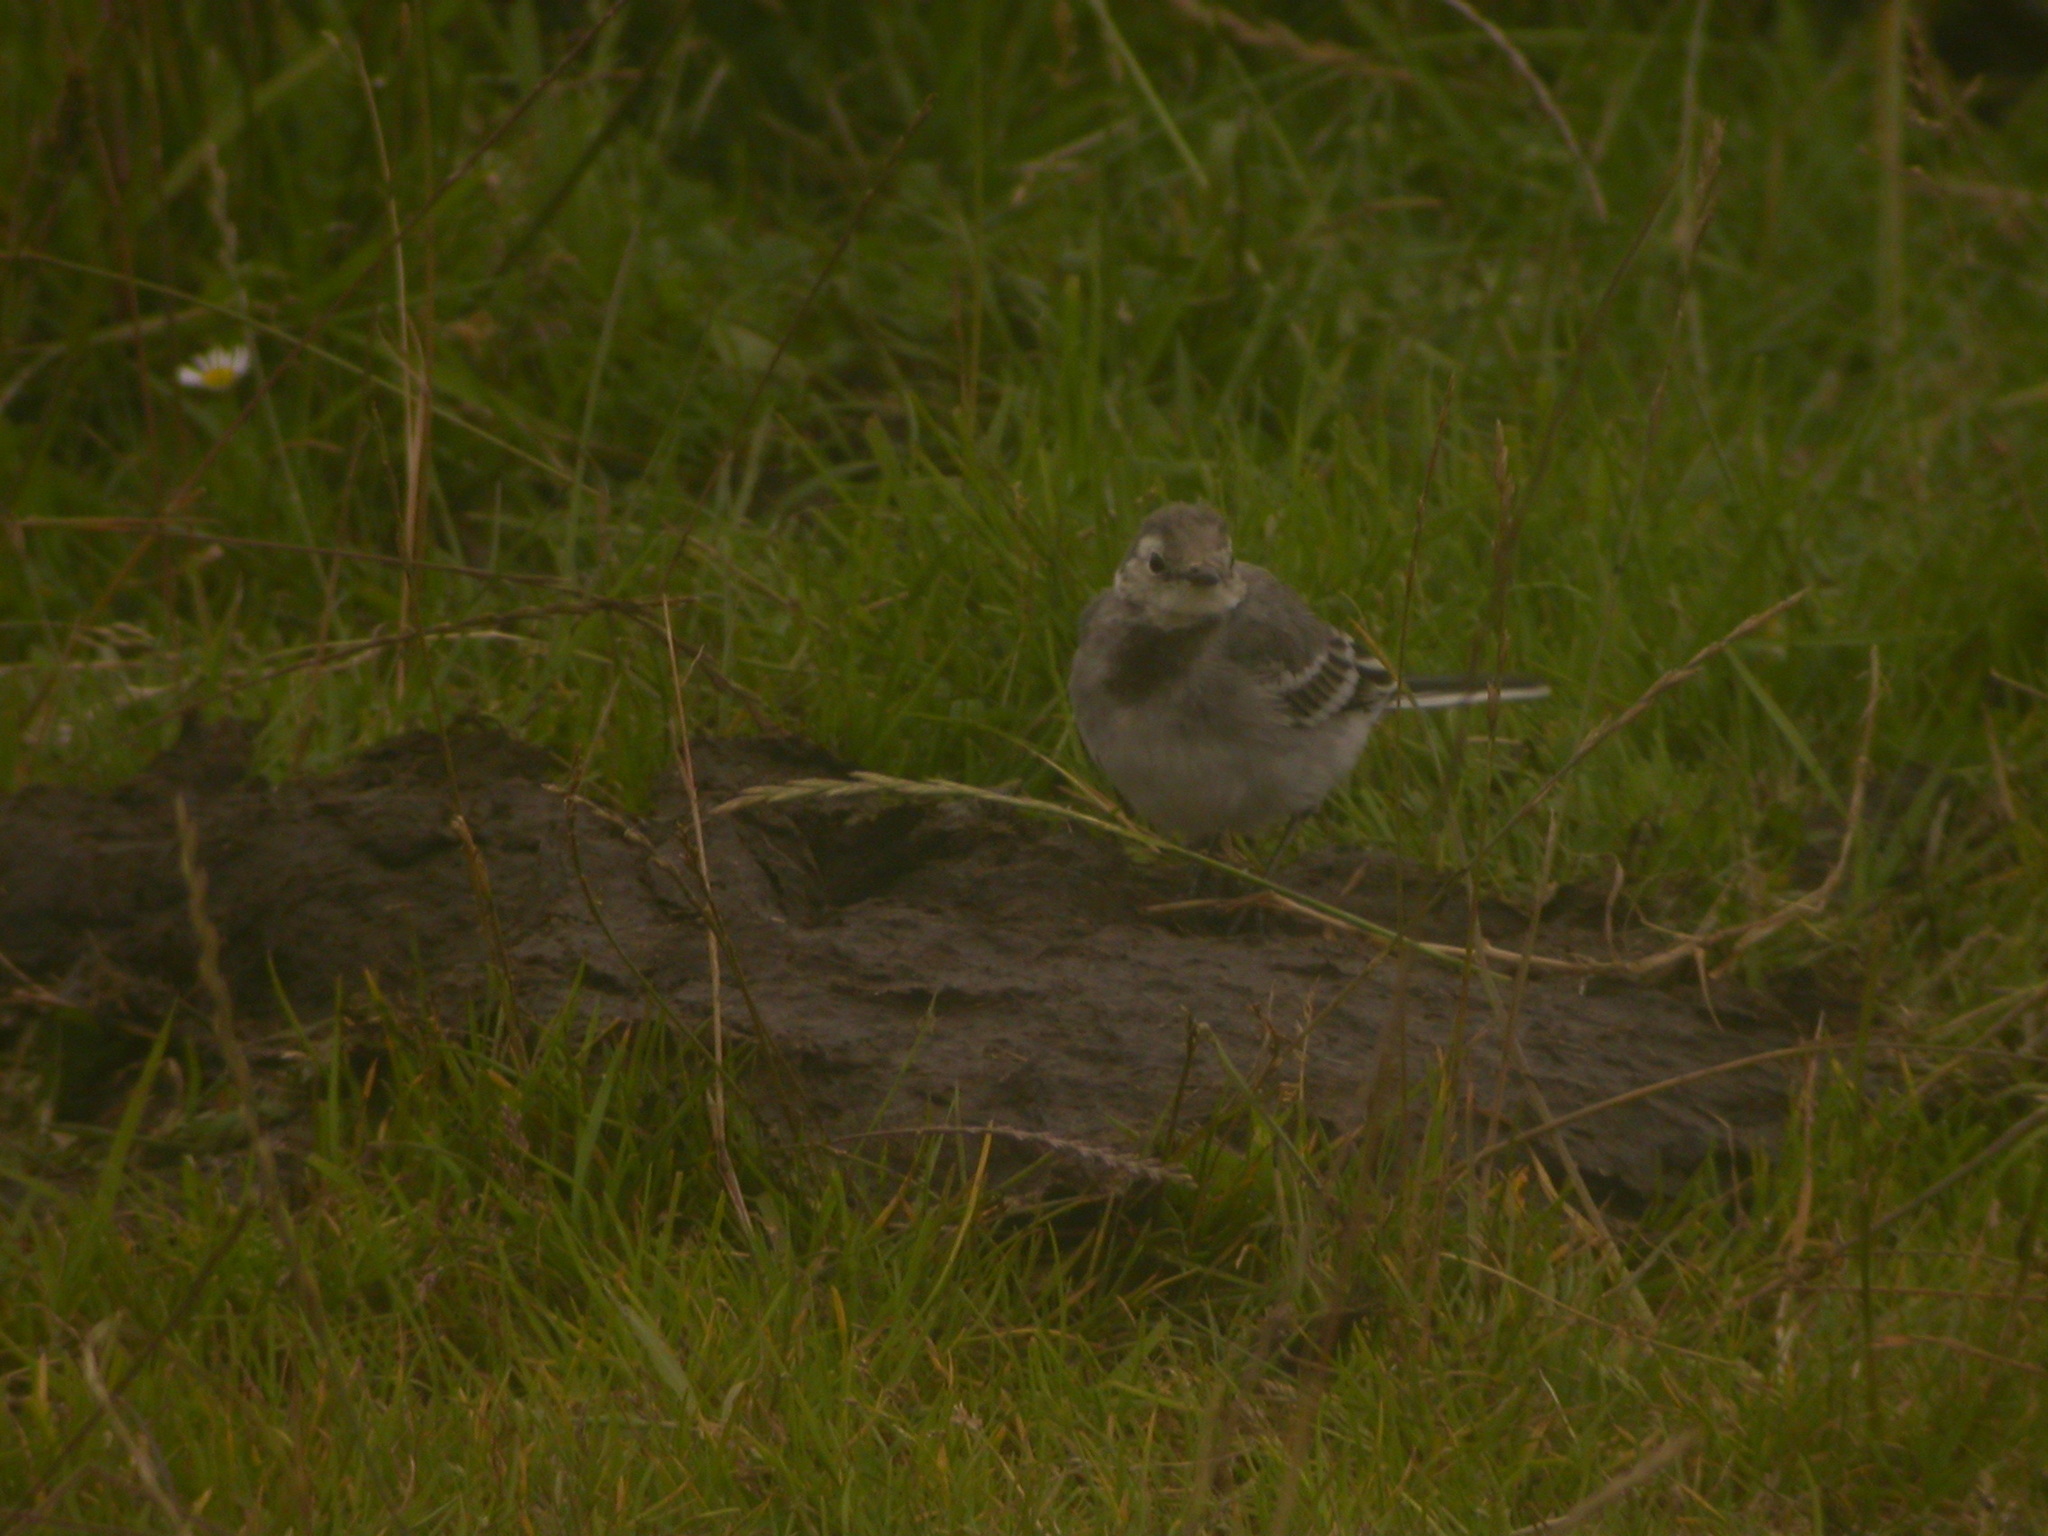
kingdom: Animalia
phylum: Chordata
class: Aves
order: Passeriformes
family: Motacillidae
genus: Motacilla
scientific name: Motacilla alba
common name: White wagtail
